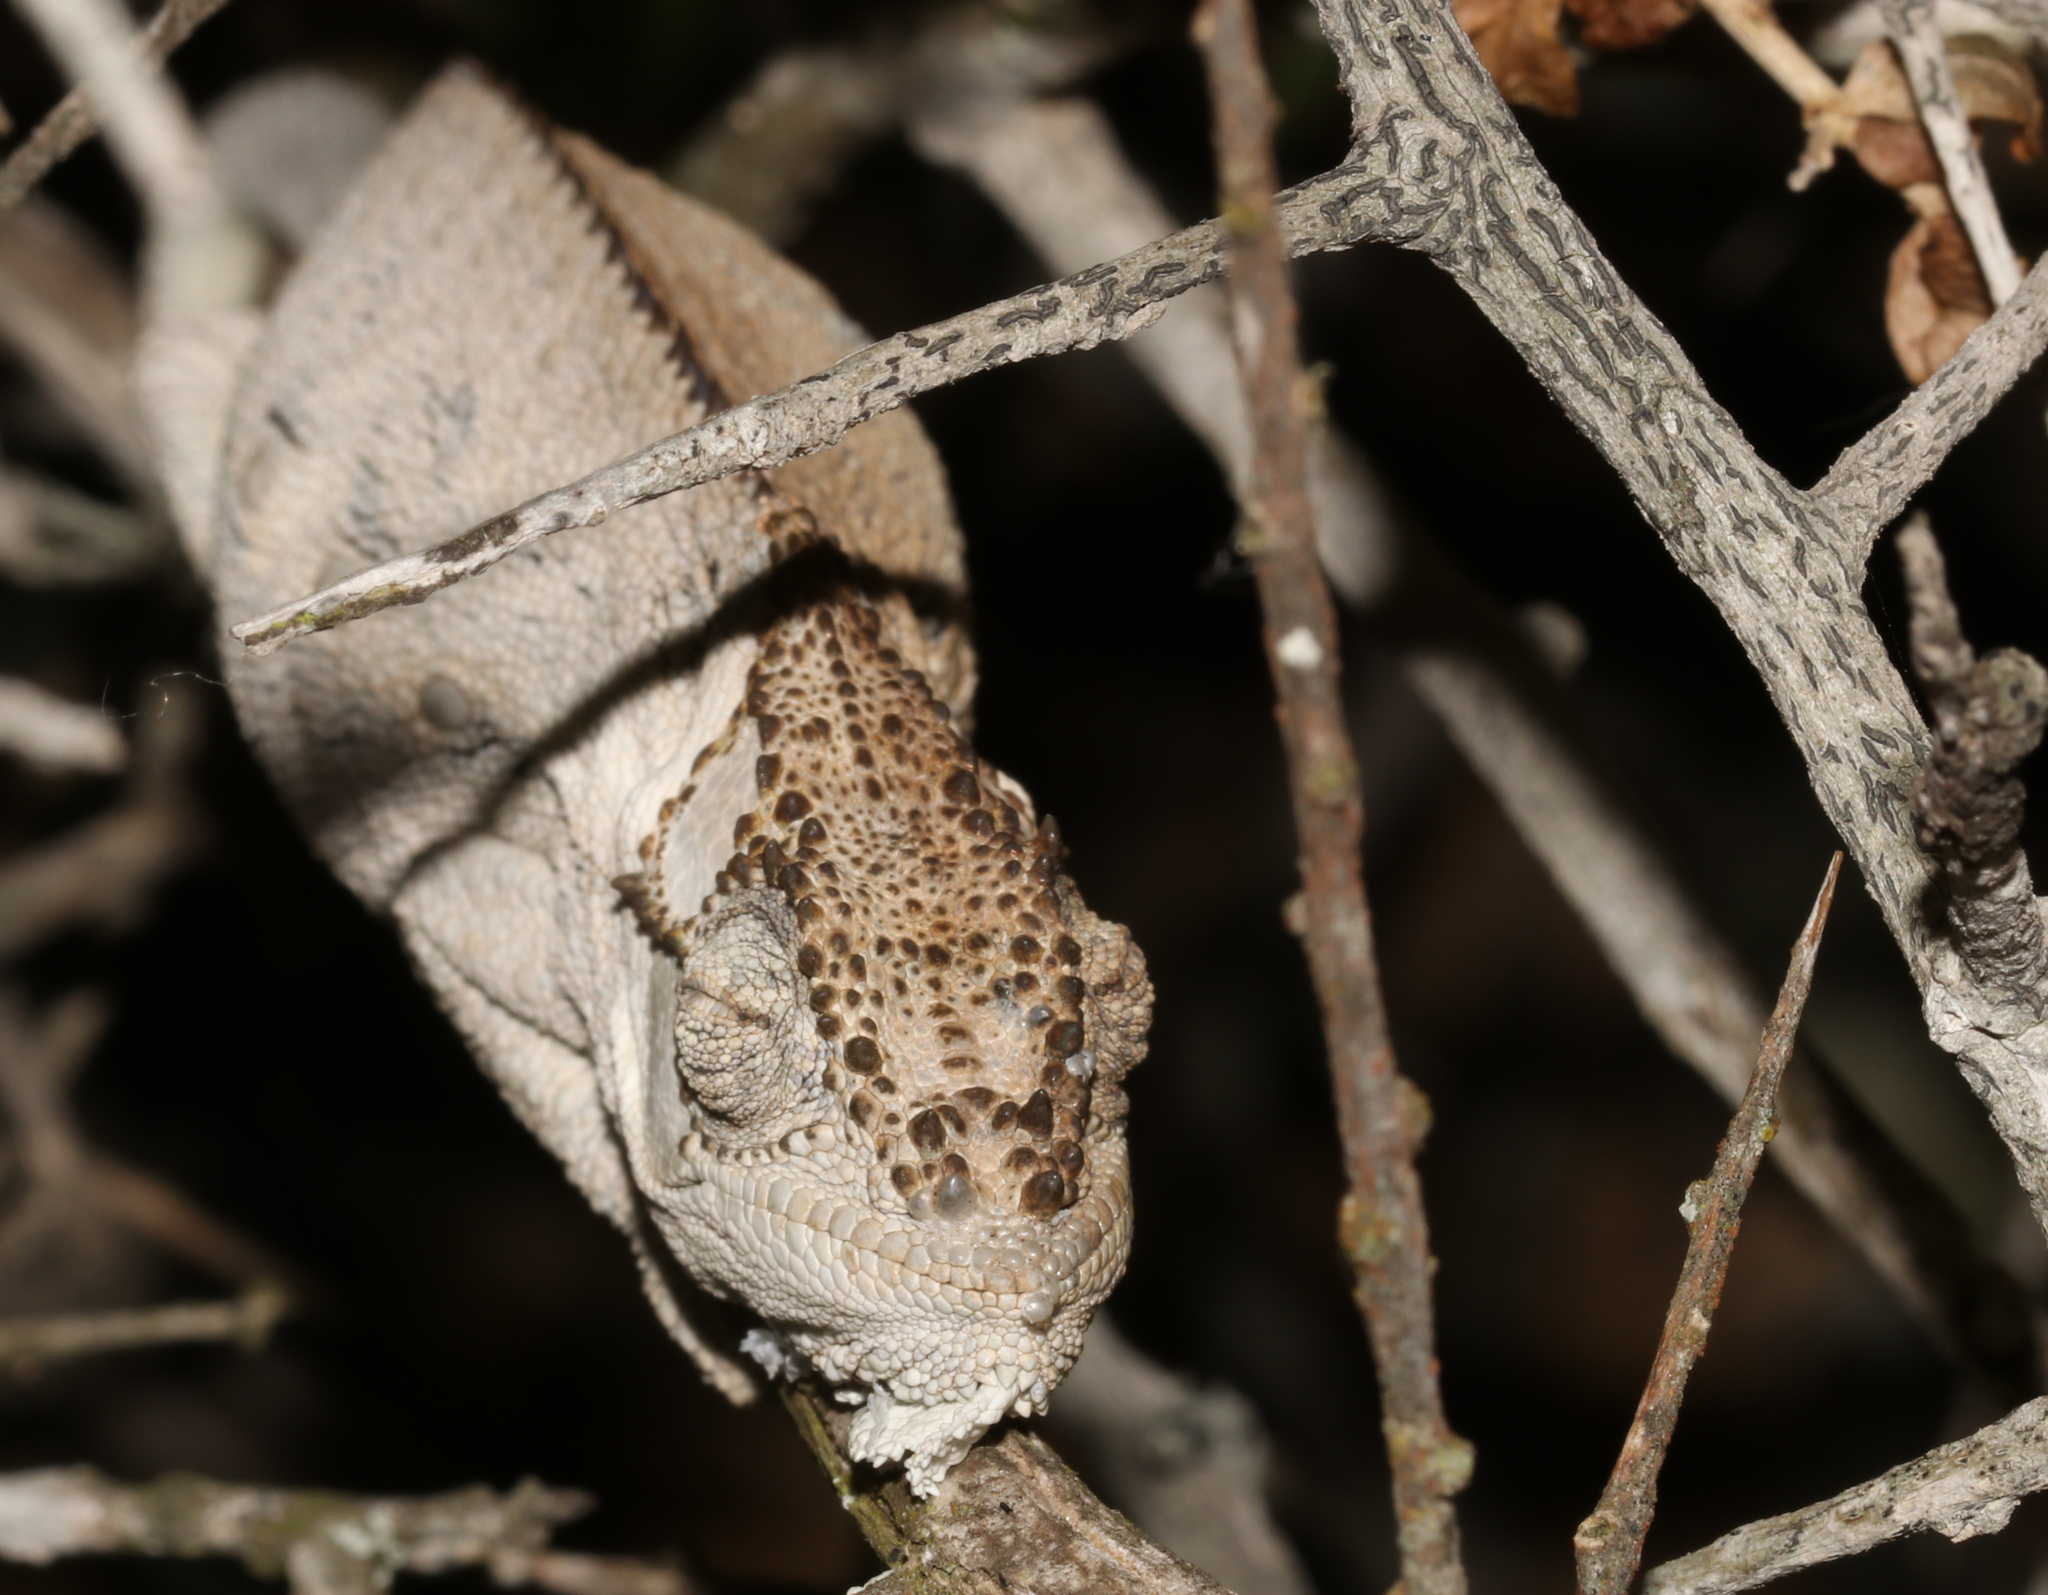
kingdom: Animalia
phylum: Chordata
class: Squamata
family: Chamaeleonidae
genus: Bradypodion
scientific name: Bradypodion occidentale
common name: Western dwarf chameleon
